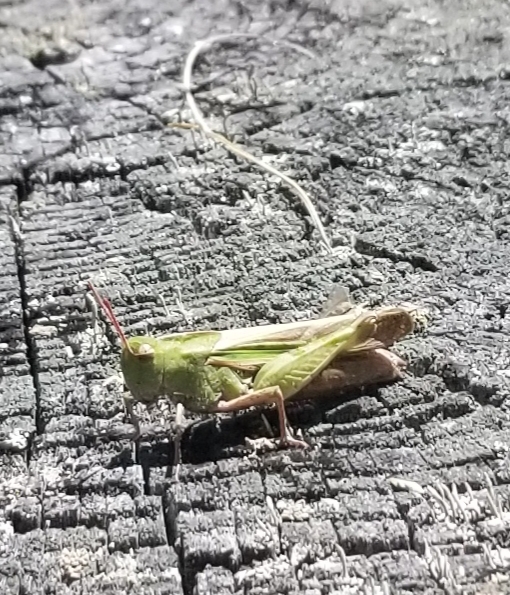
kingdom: Animalia
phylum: Arthropoda
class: Insecta
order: Orthoptera
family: Acrididae
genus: Chortophaga
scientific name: Chortophaga viridifasciata
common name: Green-striped grasshopper
